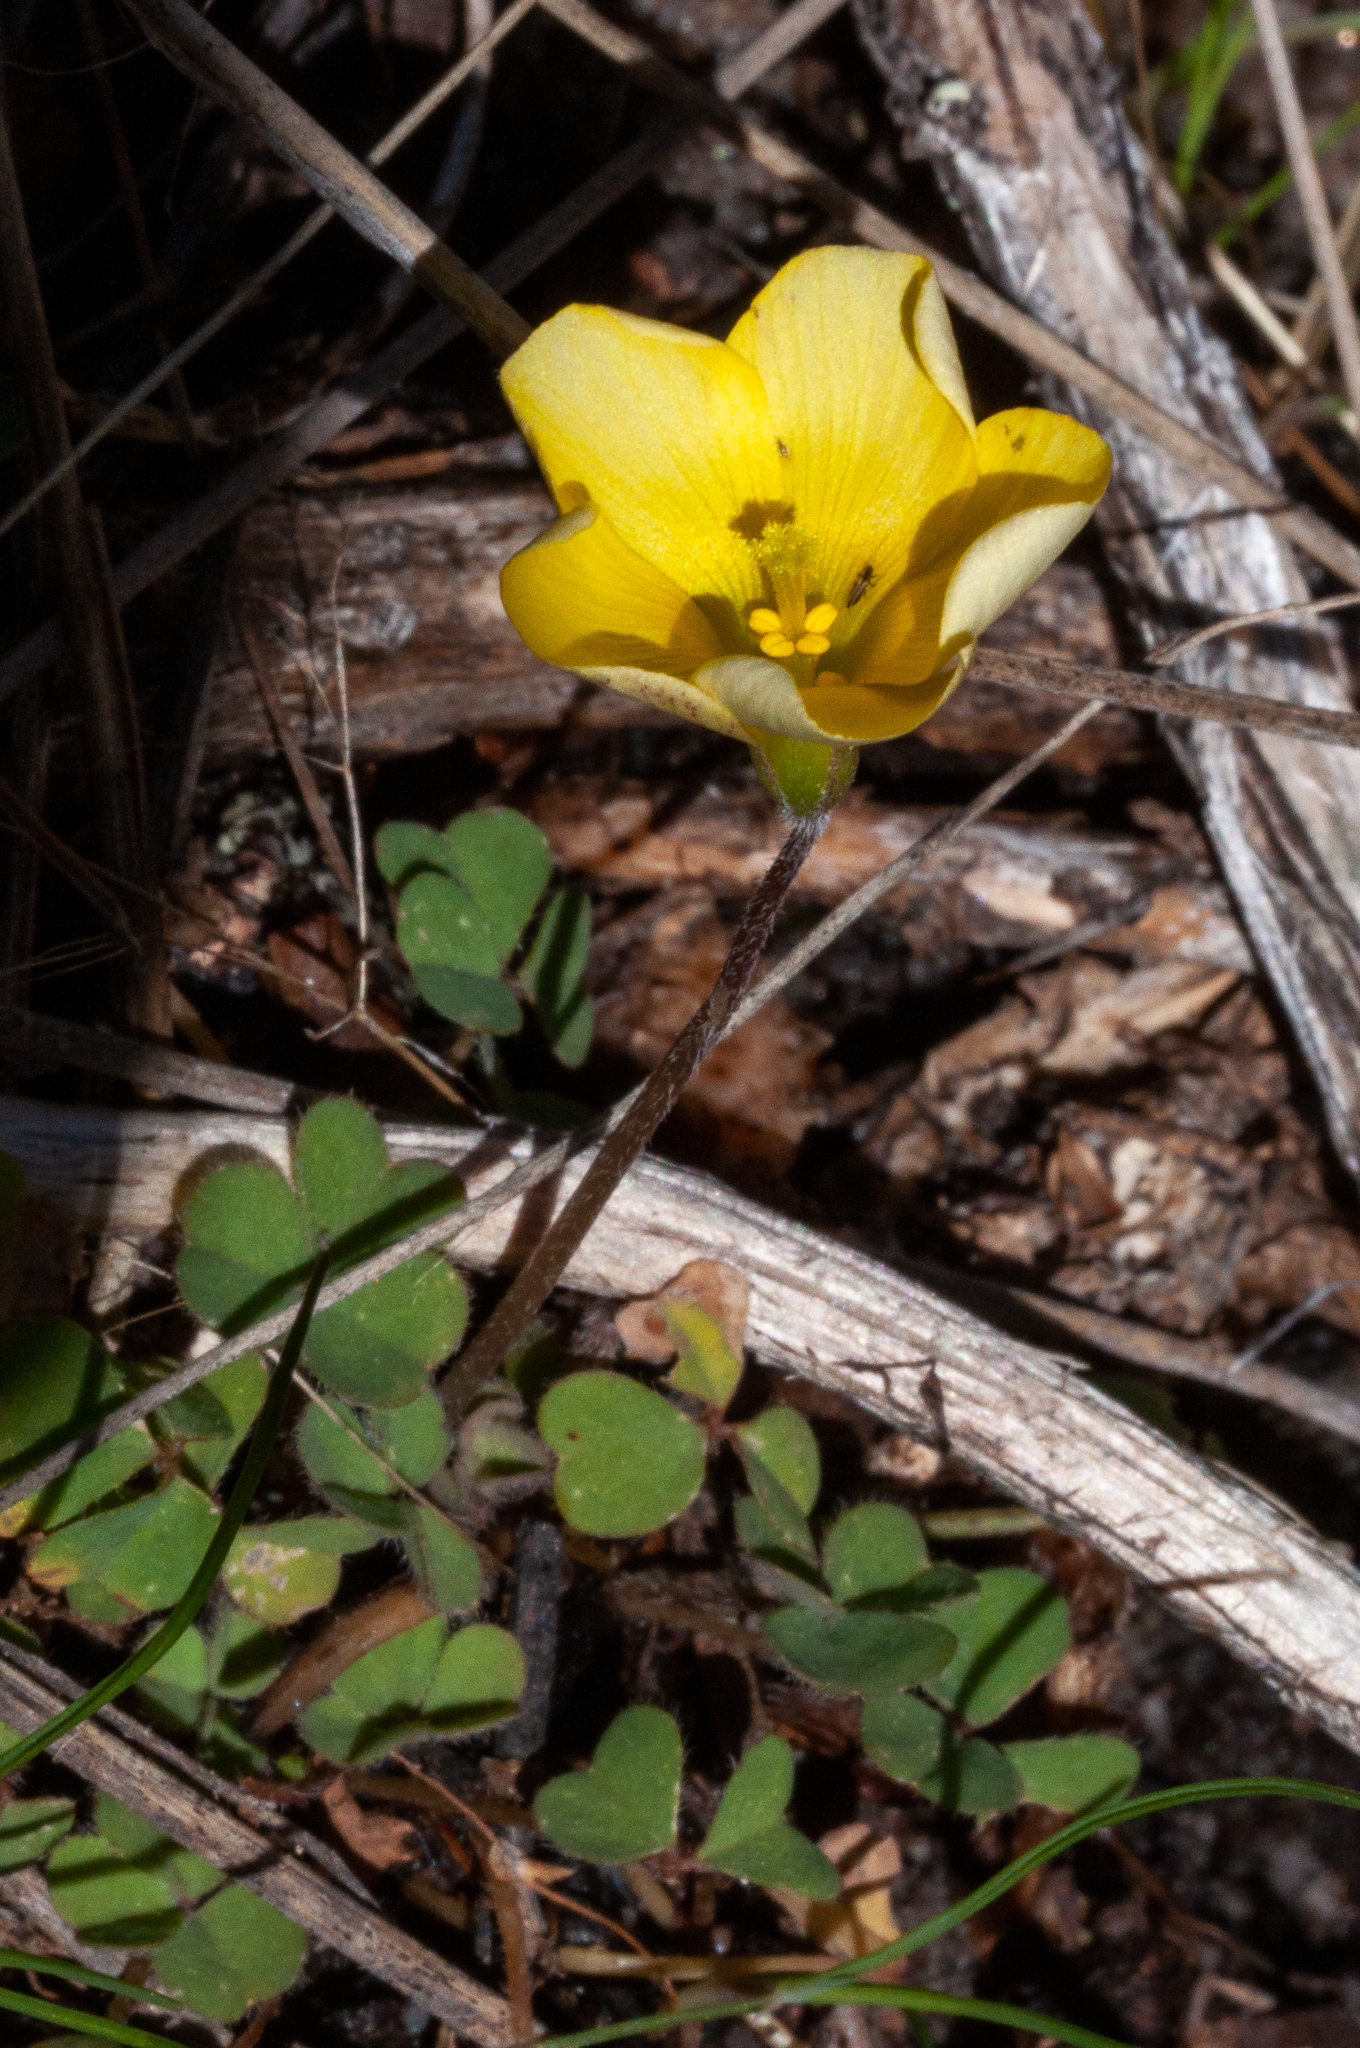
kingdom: Plantae
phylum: Tracheophyta
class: Magnoliopsida
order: Oxalidales
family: Oxalidaceae
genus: Oxalis
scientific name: Oxalis obtusa
